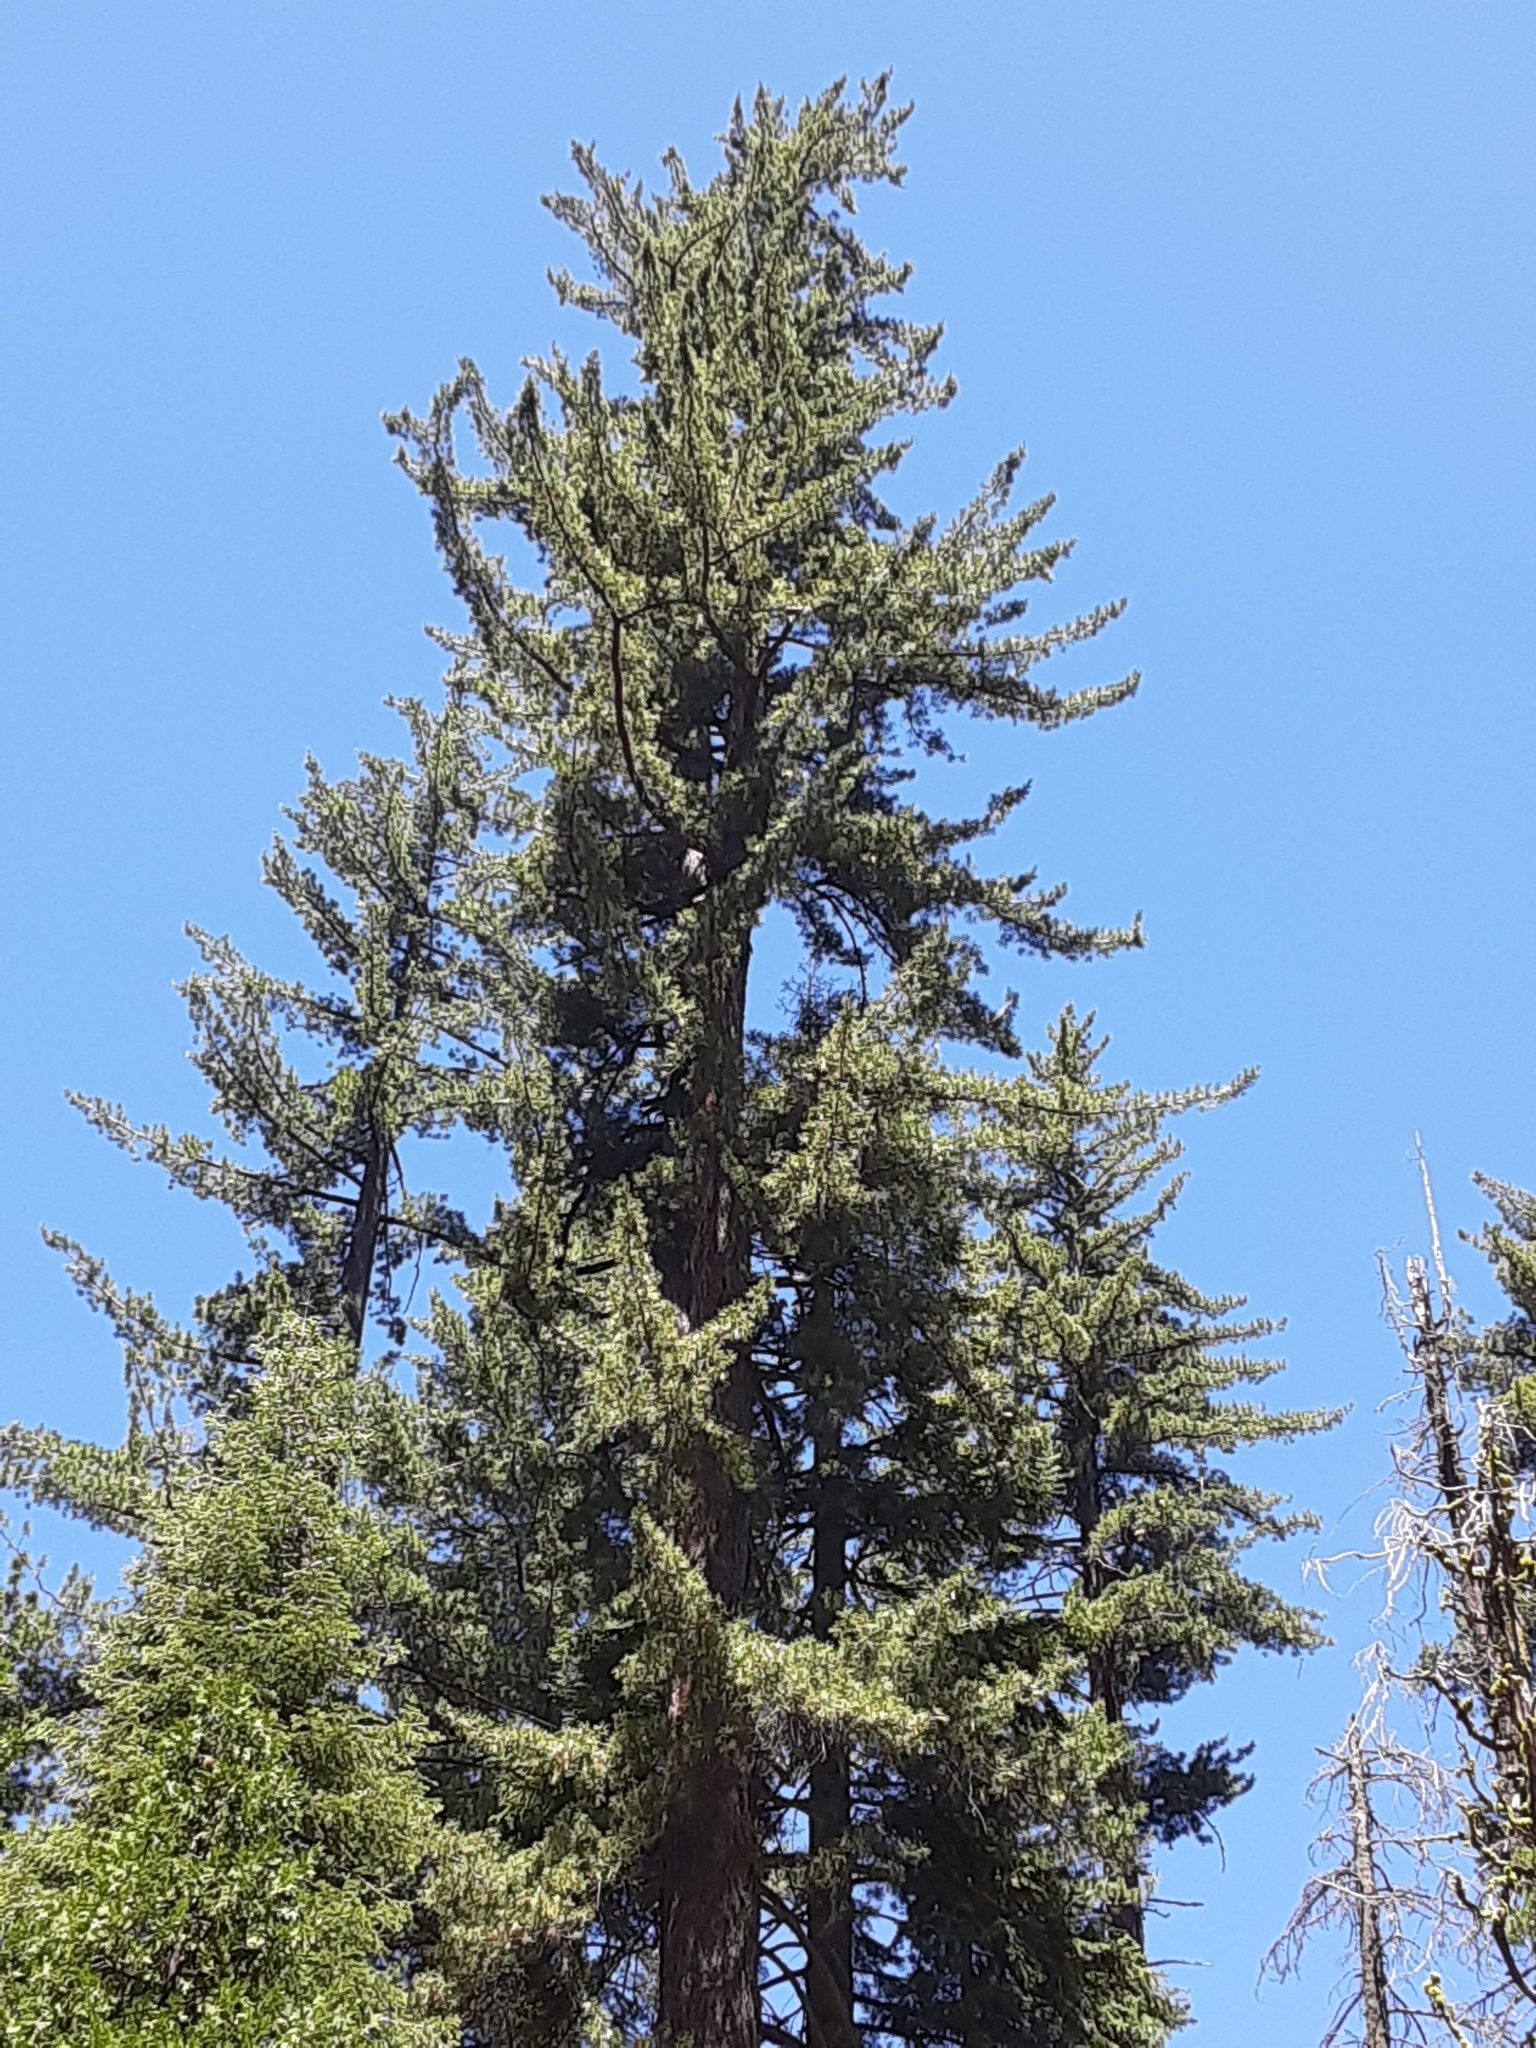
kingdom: Plantae
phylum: Tracheophyta
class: Pinopsida
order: Pinales
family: Pinaceae
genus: Pinus
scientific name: Pinus lambertiana
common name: Sugar pine
